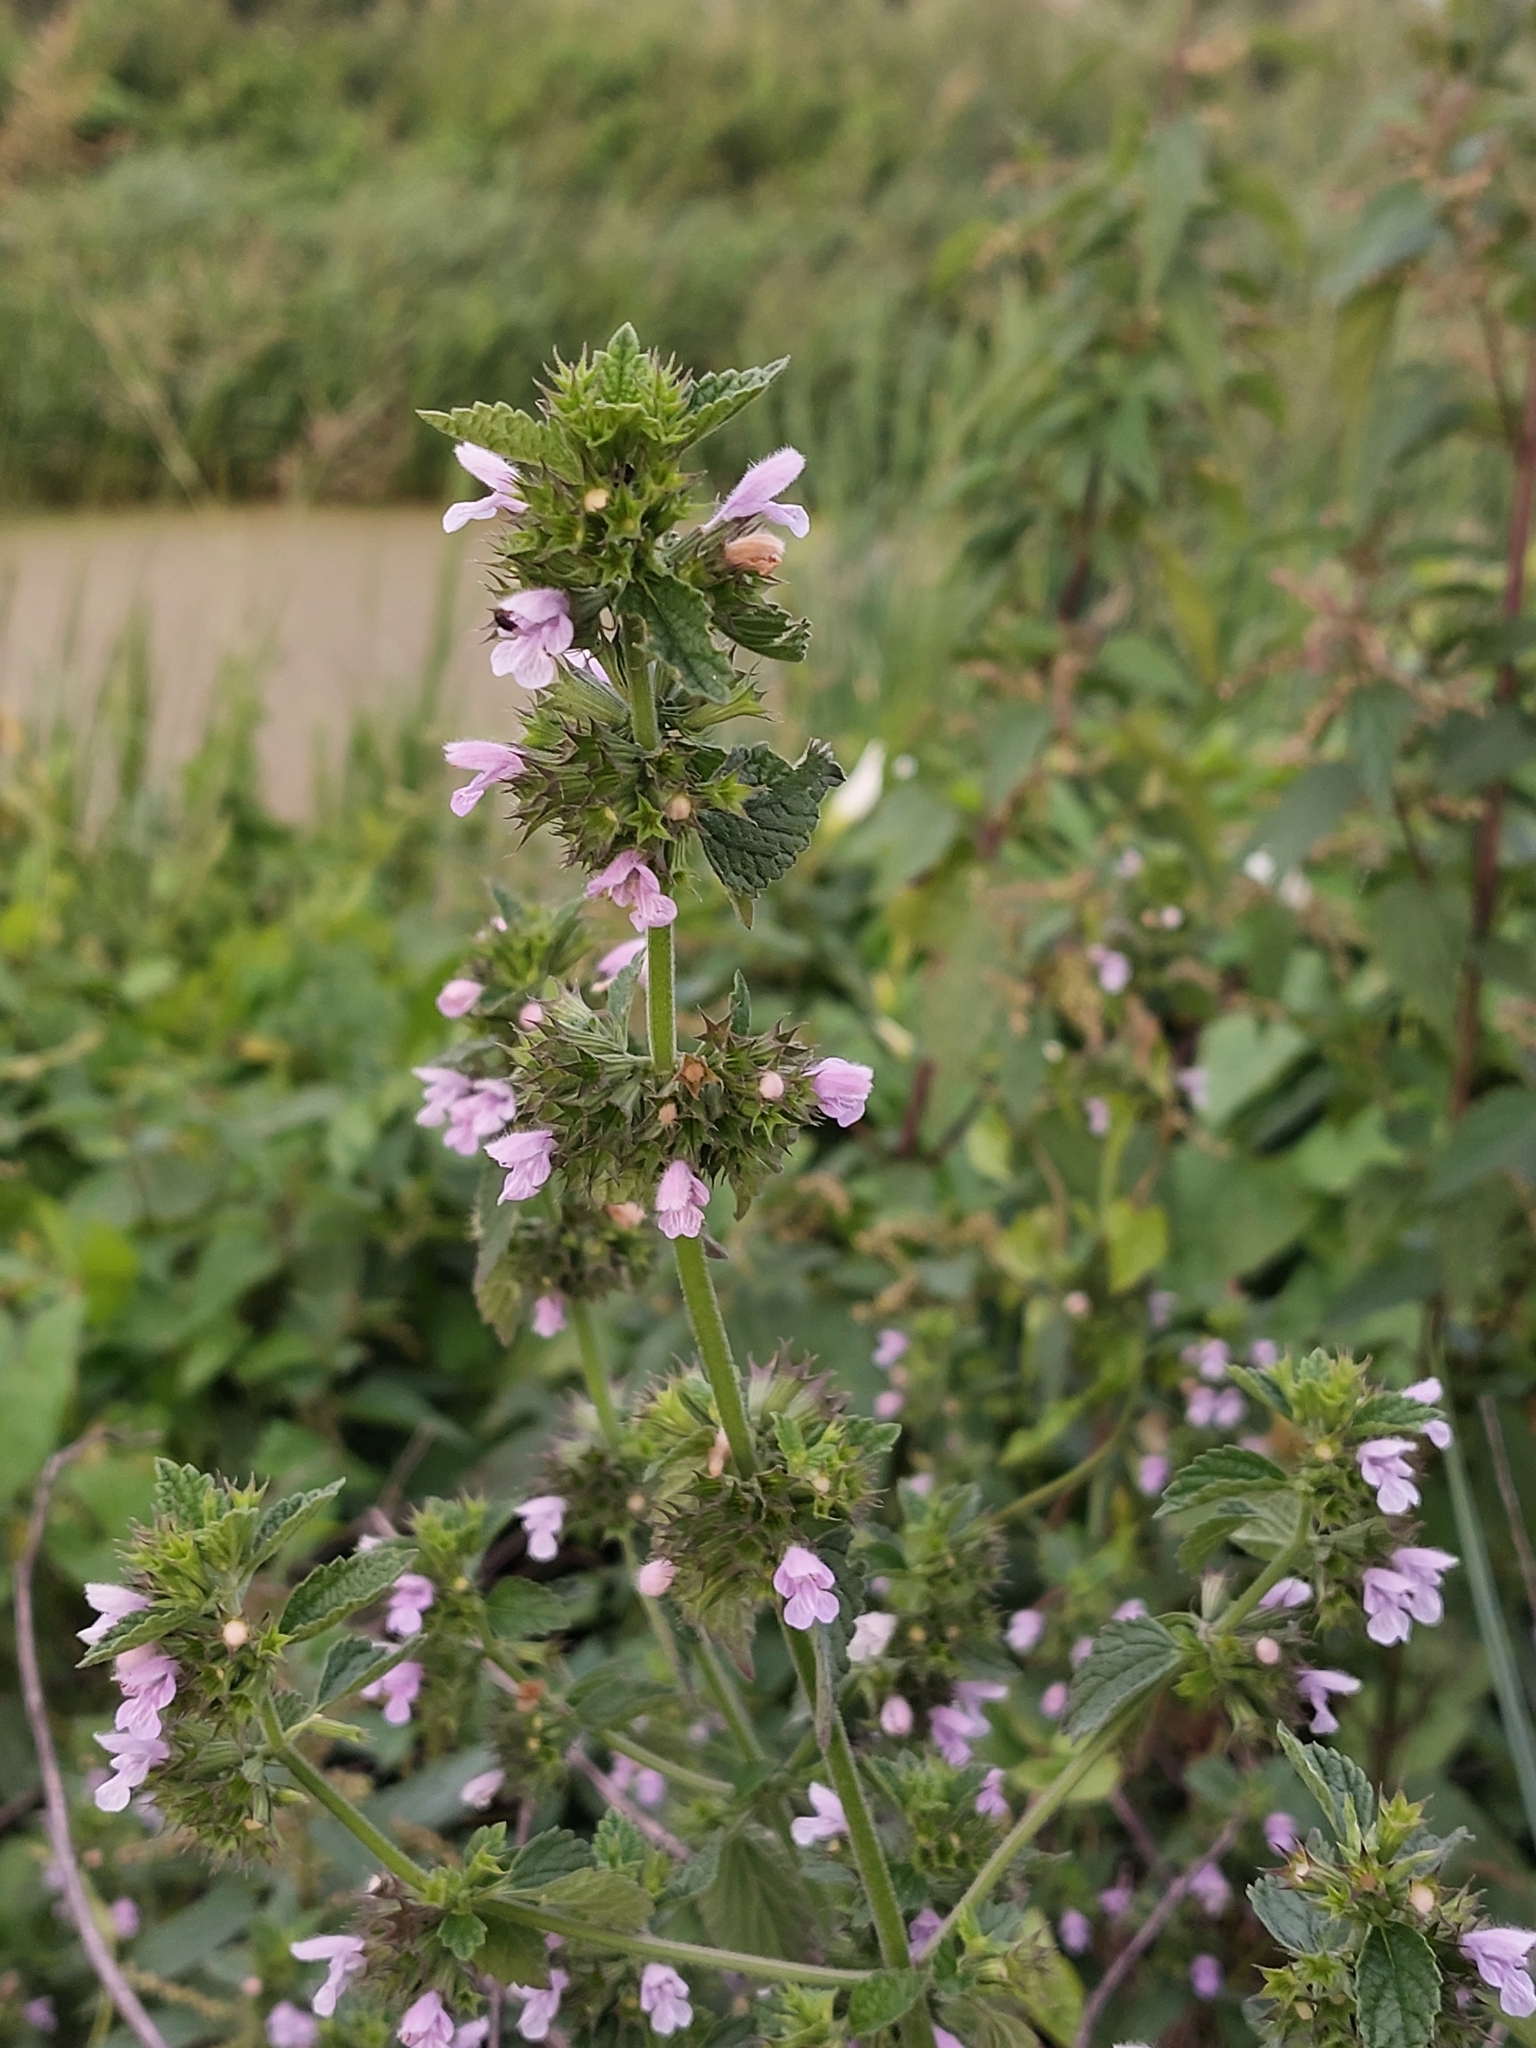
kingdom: Plantae
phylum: Tracheophyta
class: Magnoliopsida
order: Lamiales
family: Lamiaceae
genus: Ballota
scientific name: Ballota nigra
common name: Black horehound
